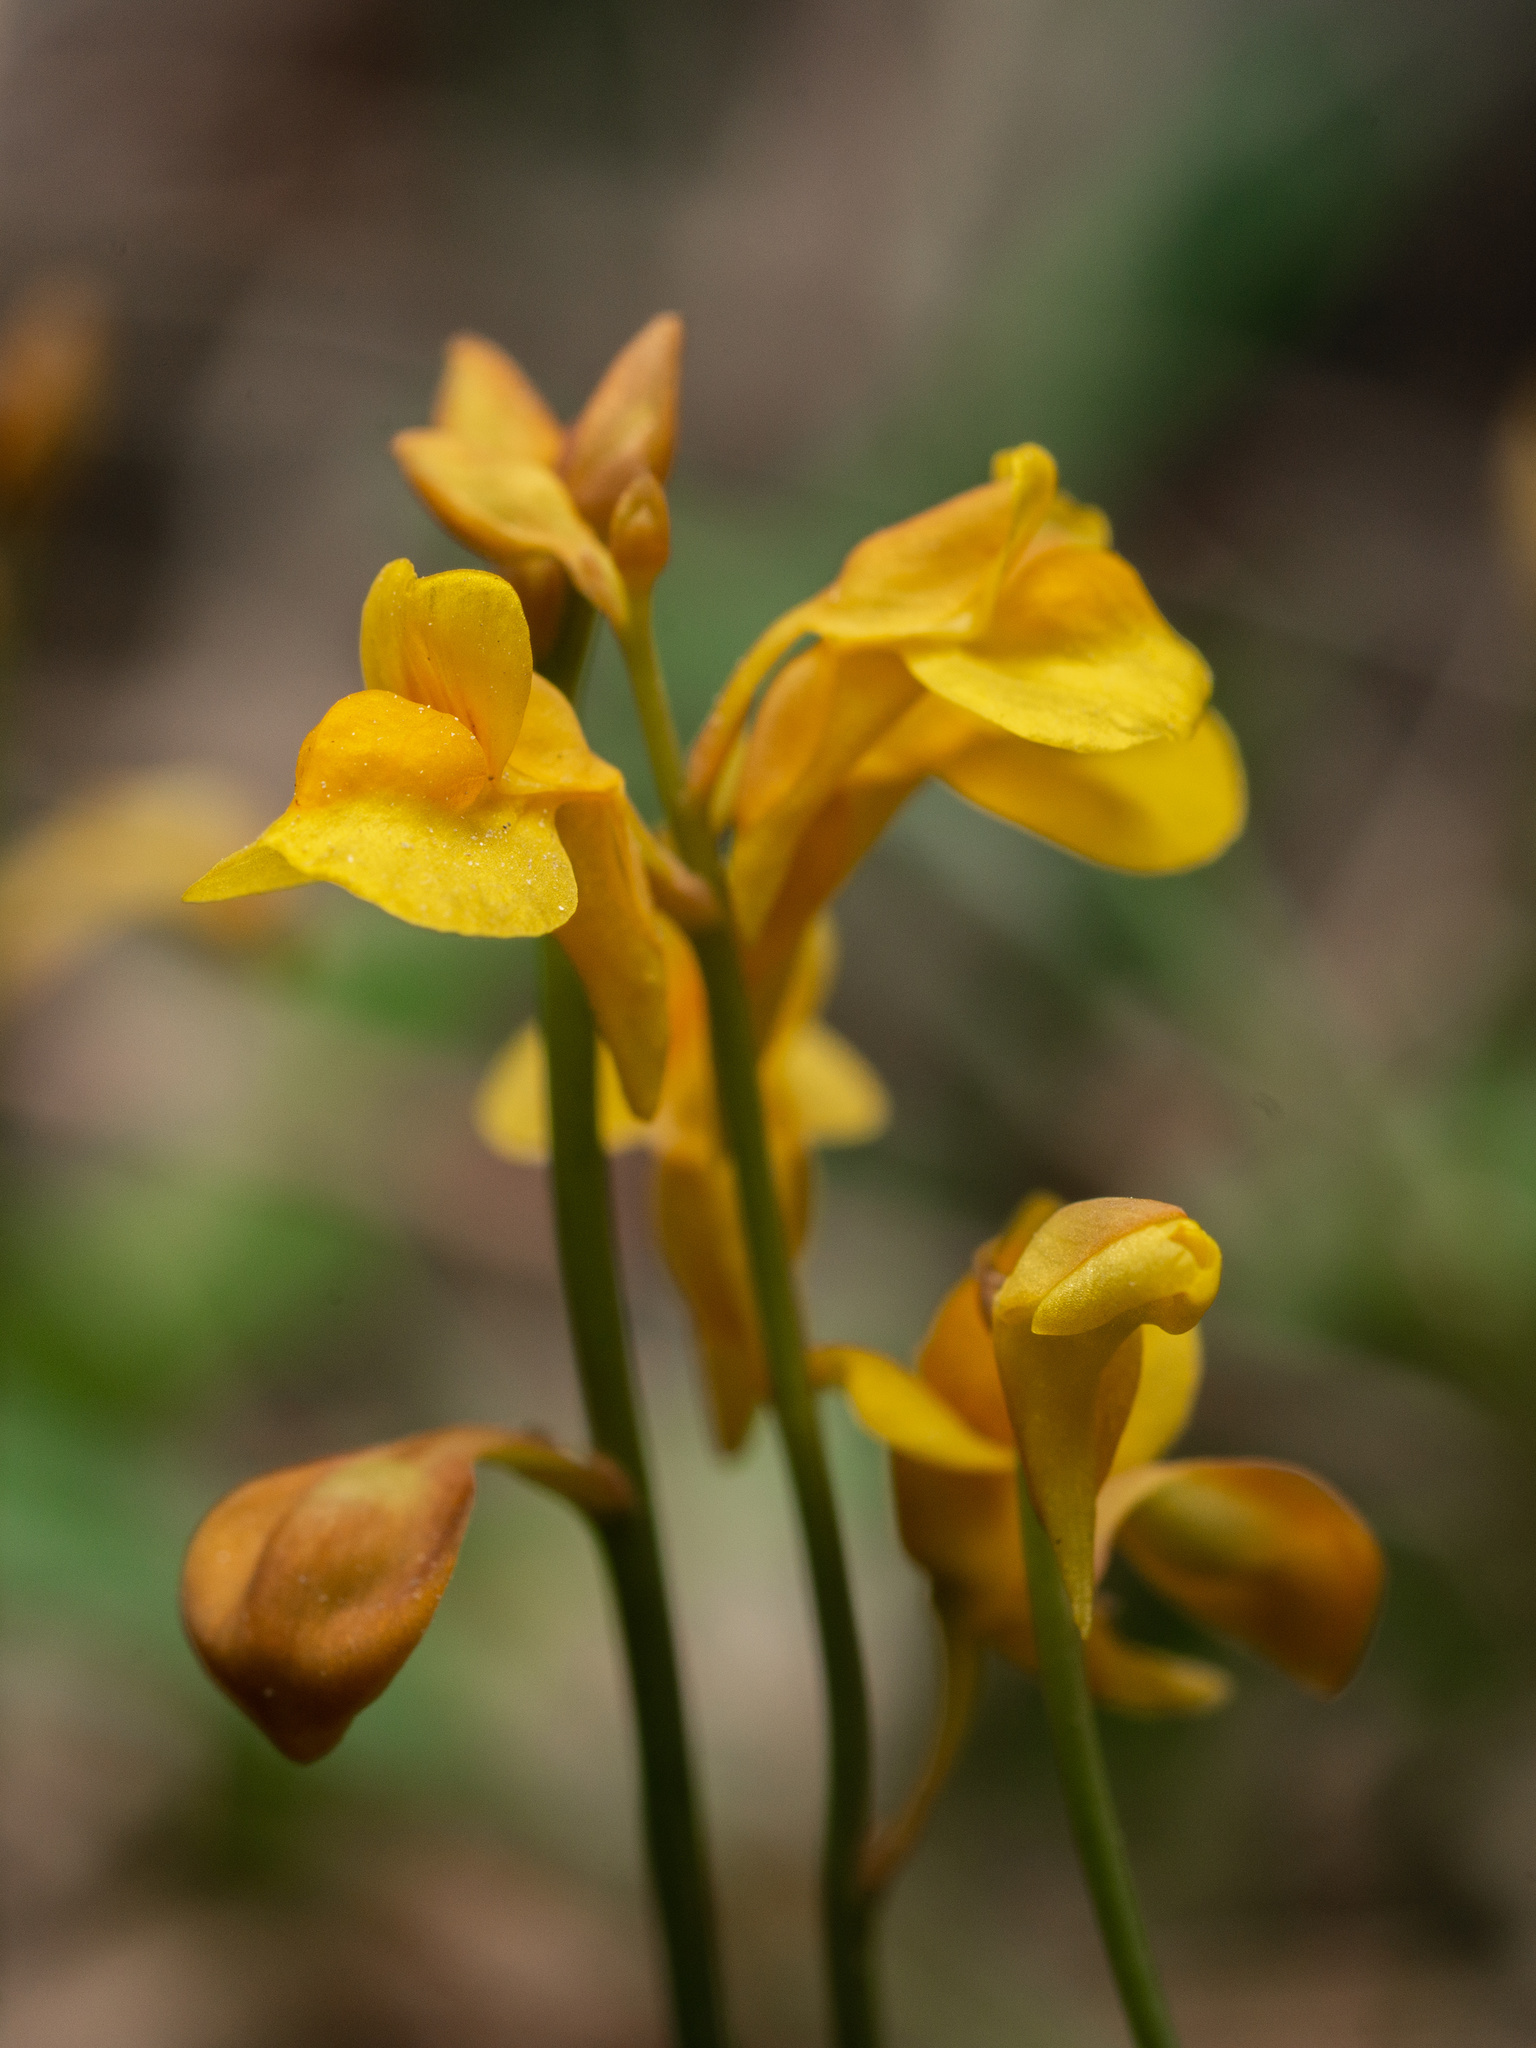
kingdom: Plantae
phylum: Tracheophyta
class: Magnoliopsida
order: Lamiales
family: Lentibulariaceae
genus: Utricularia
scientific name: Utricularia bifida
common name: Bifid bladderwort
